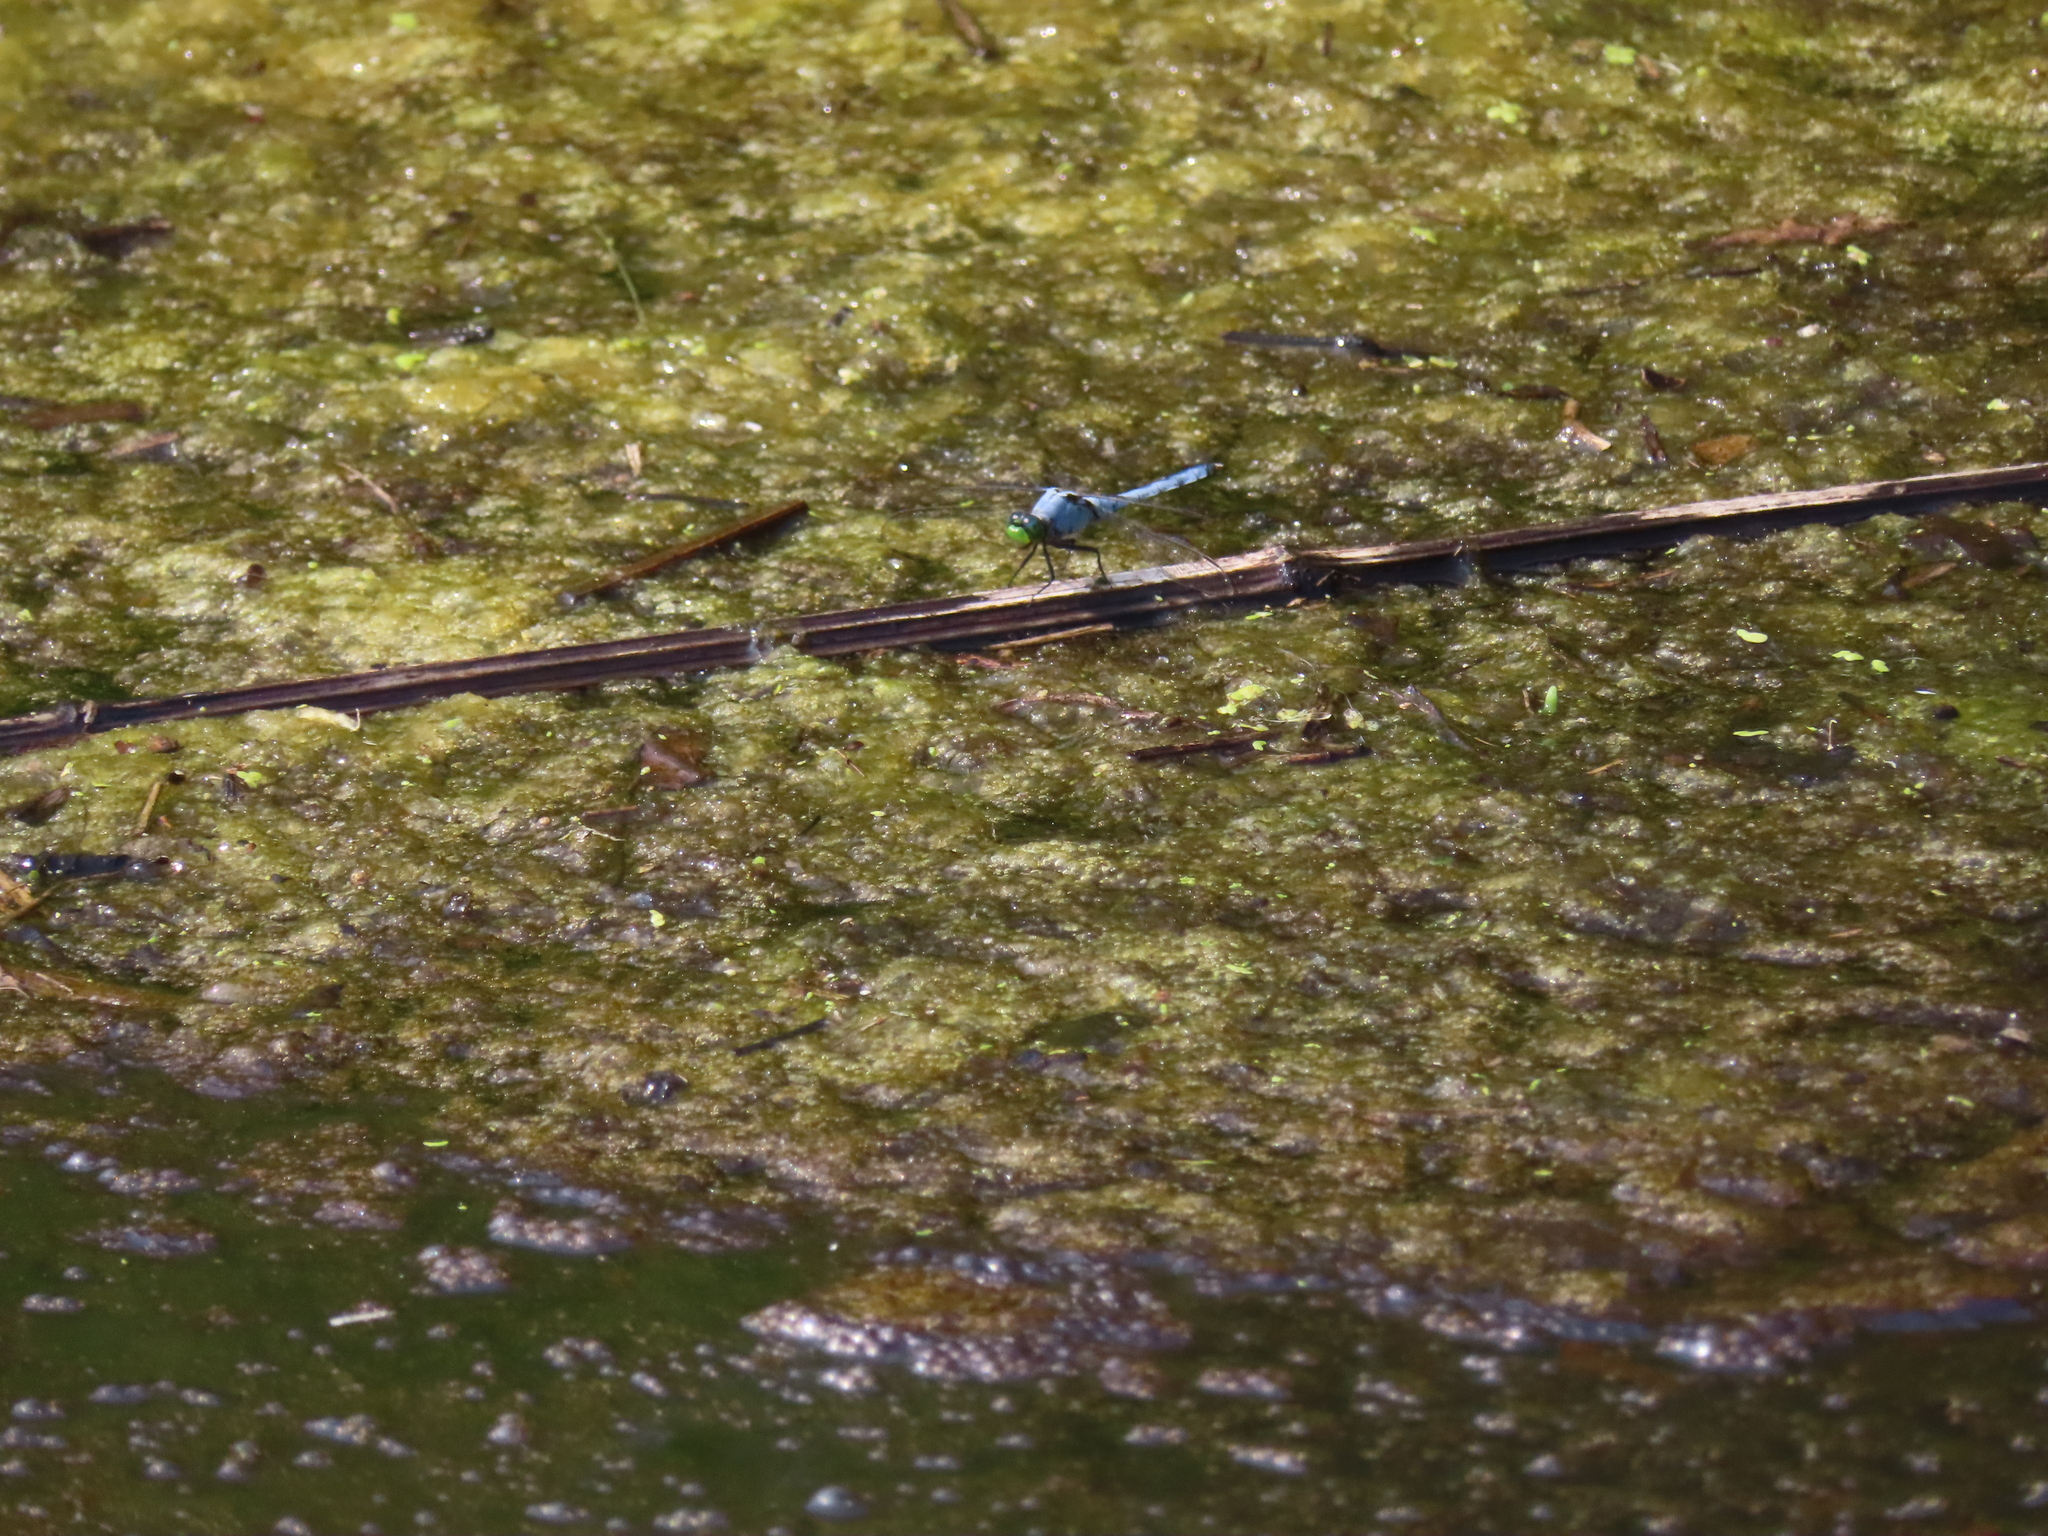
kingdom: Animalia
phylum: Arthropoda
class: Insecta
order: Odonata
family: Libellulidae
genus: Erythemis
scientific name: Erythemis simplicicollis
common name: Eastern pondhawk
